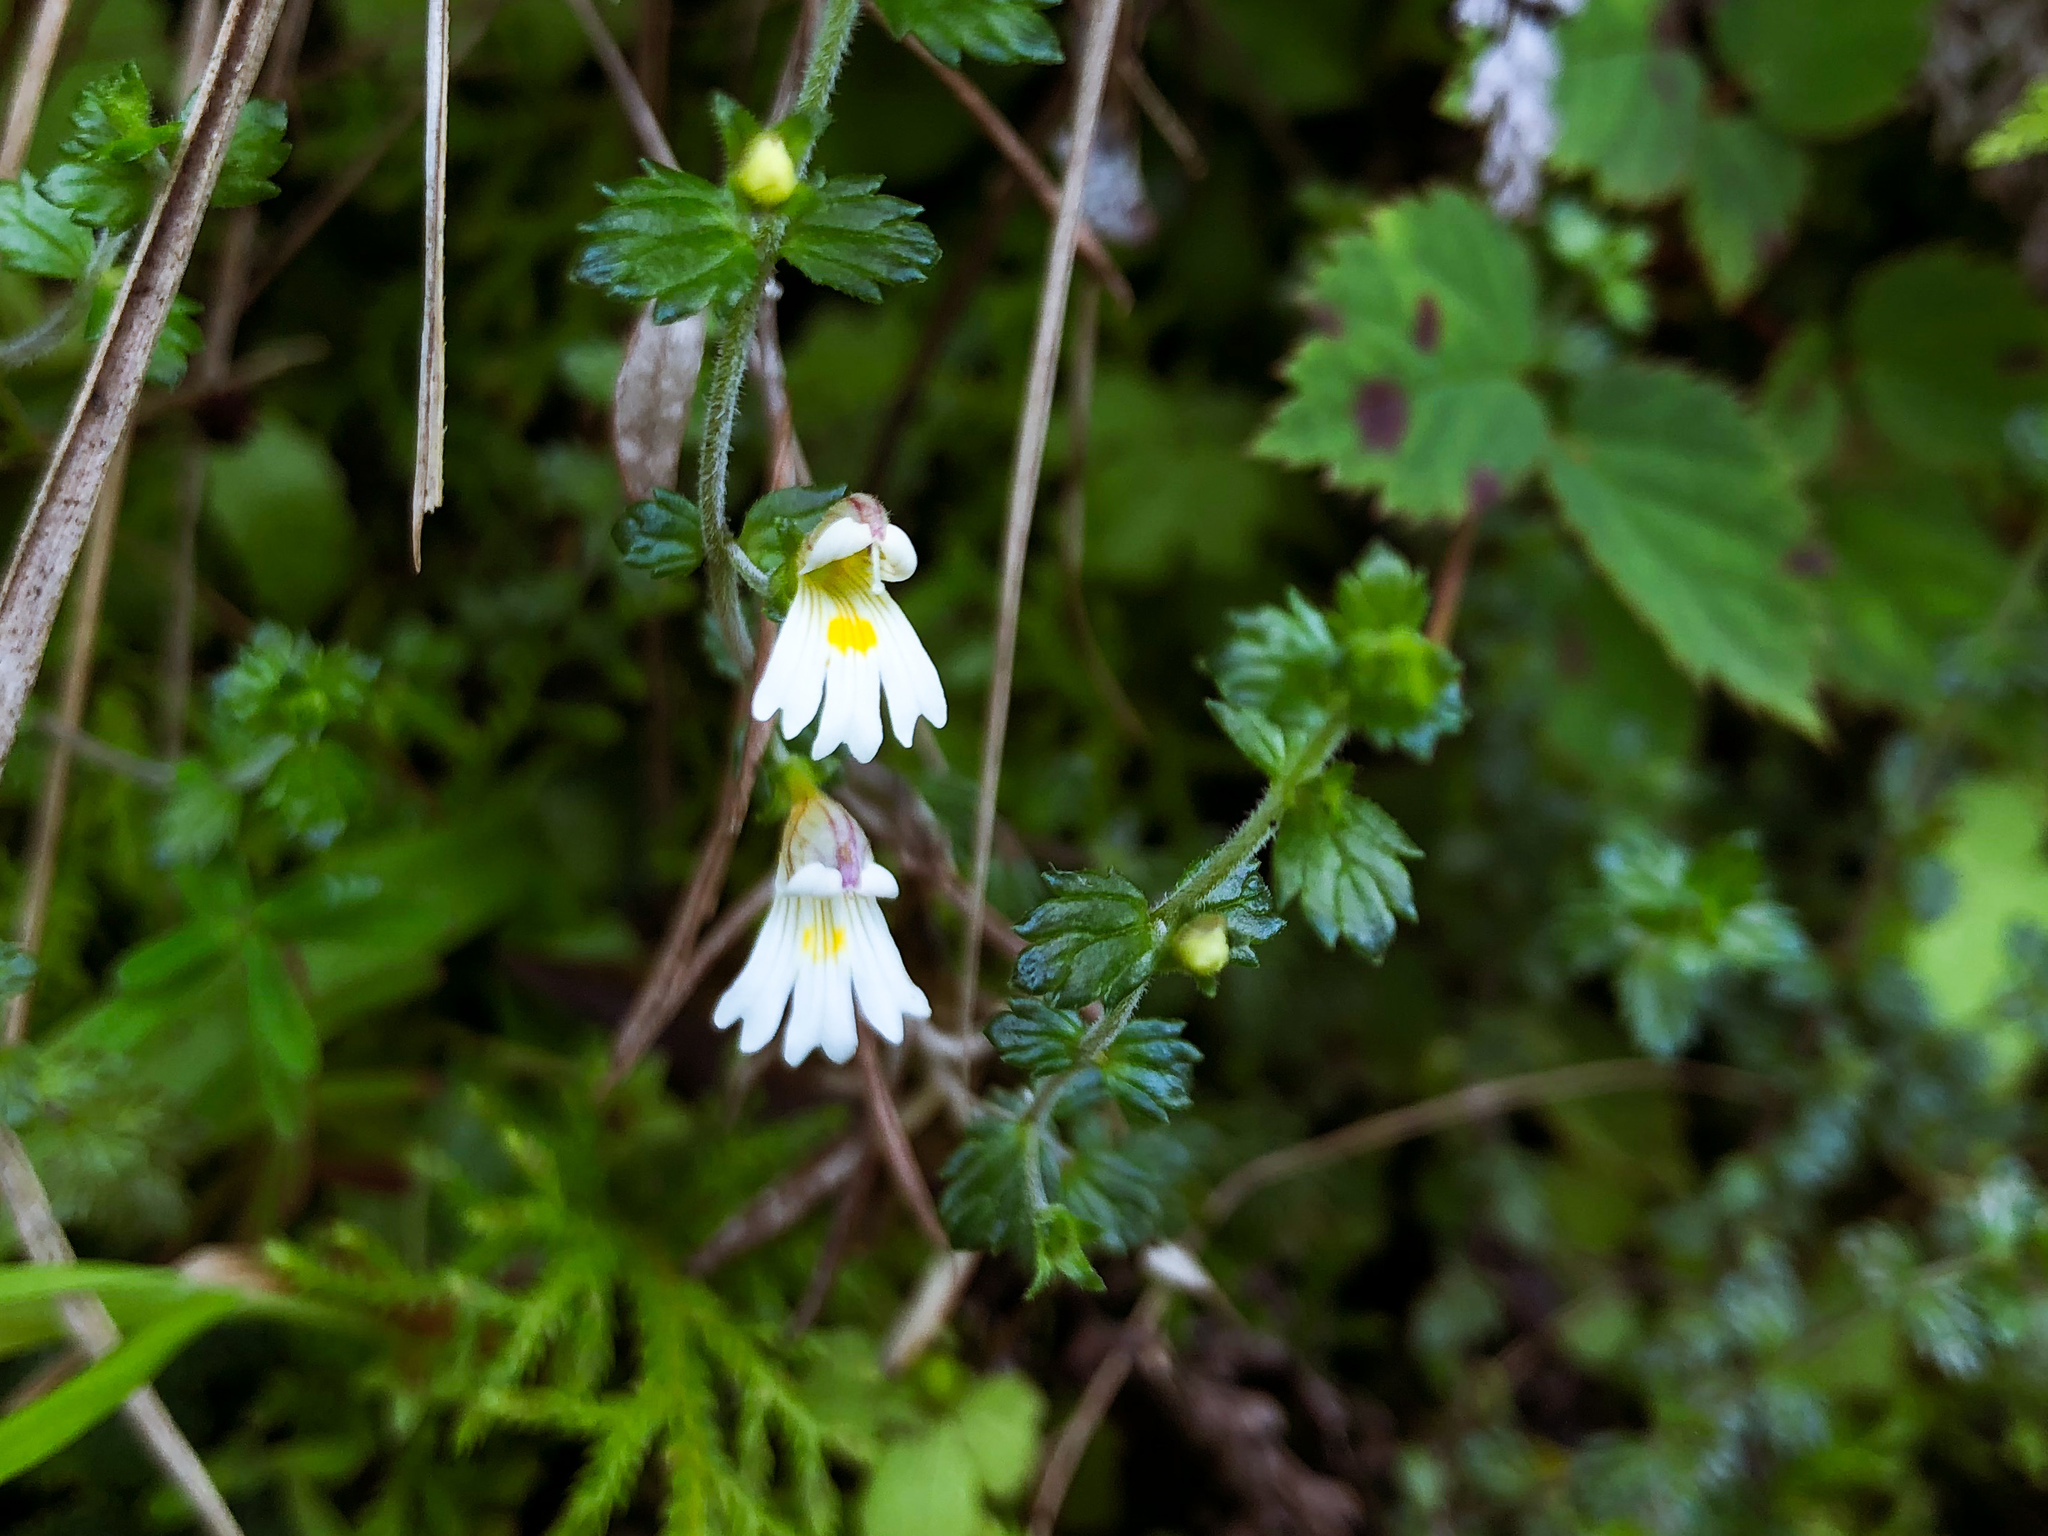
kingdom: Plantae
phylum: Tracheophyta
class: Magnoliopsida
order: Lamiales
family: Orobanchaceae
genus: Euphrasia
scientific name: Euphrasia transmorrisonensis
